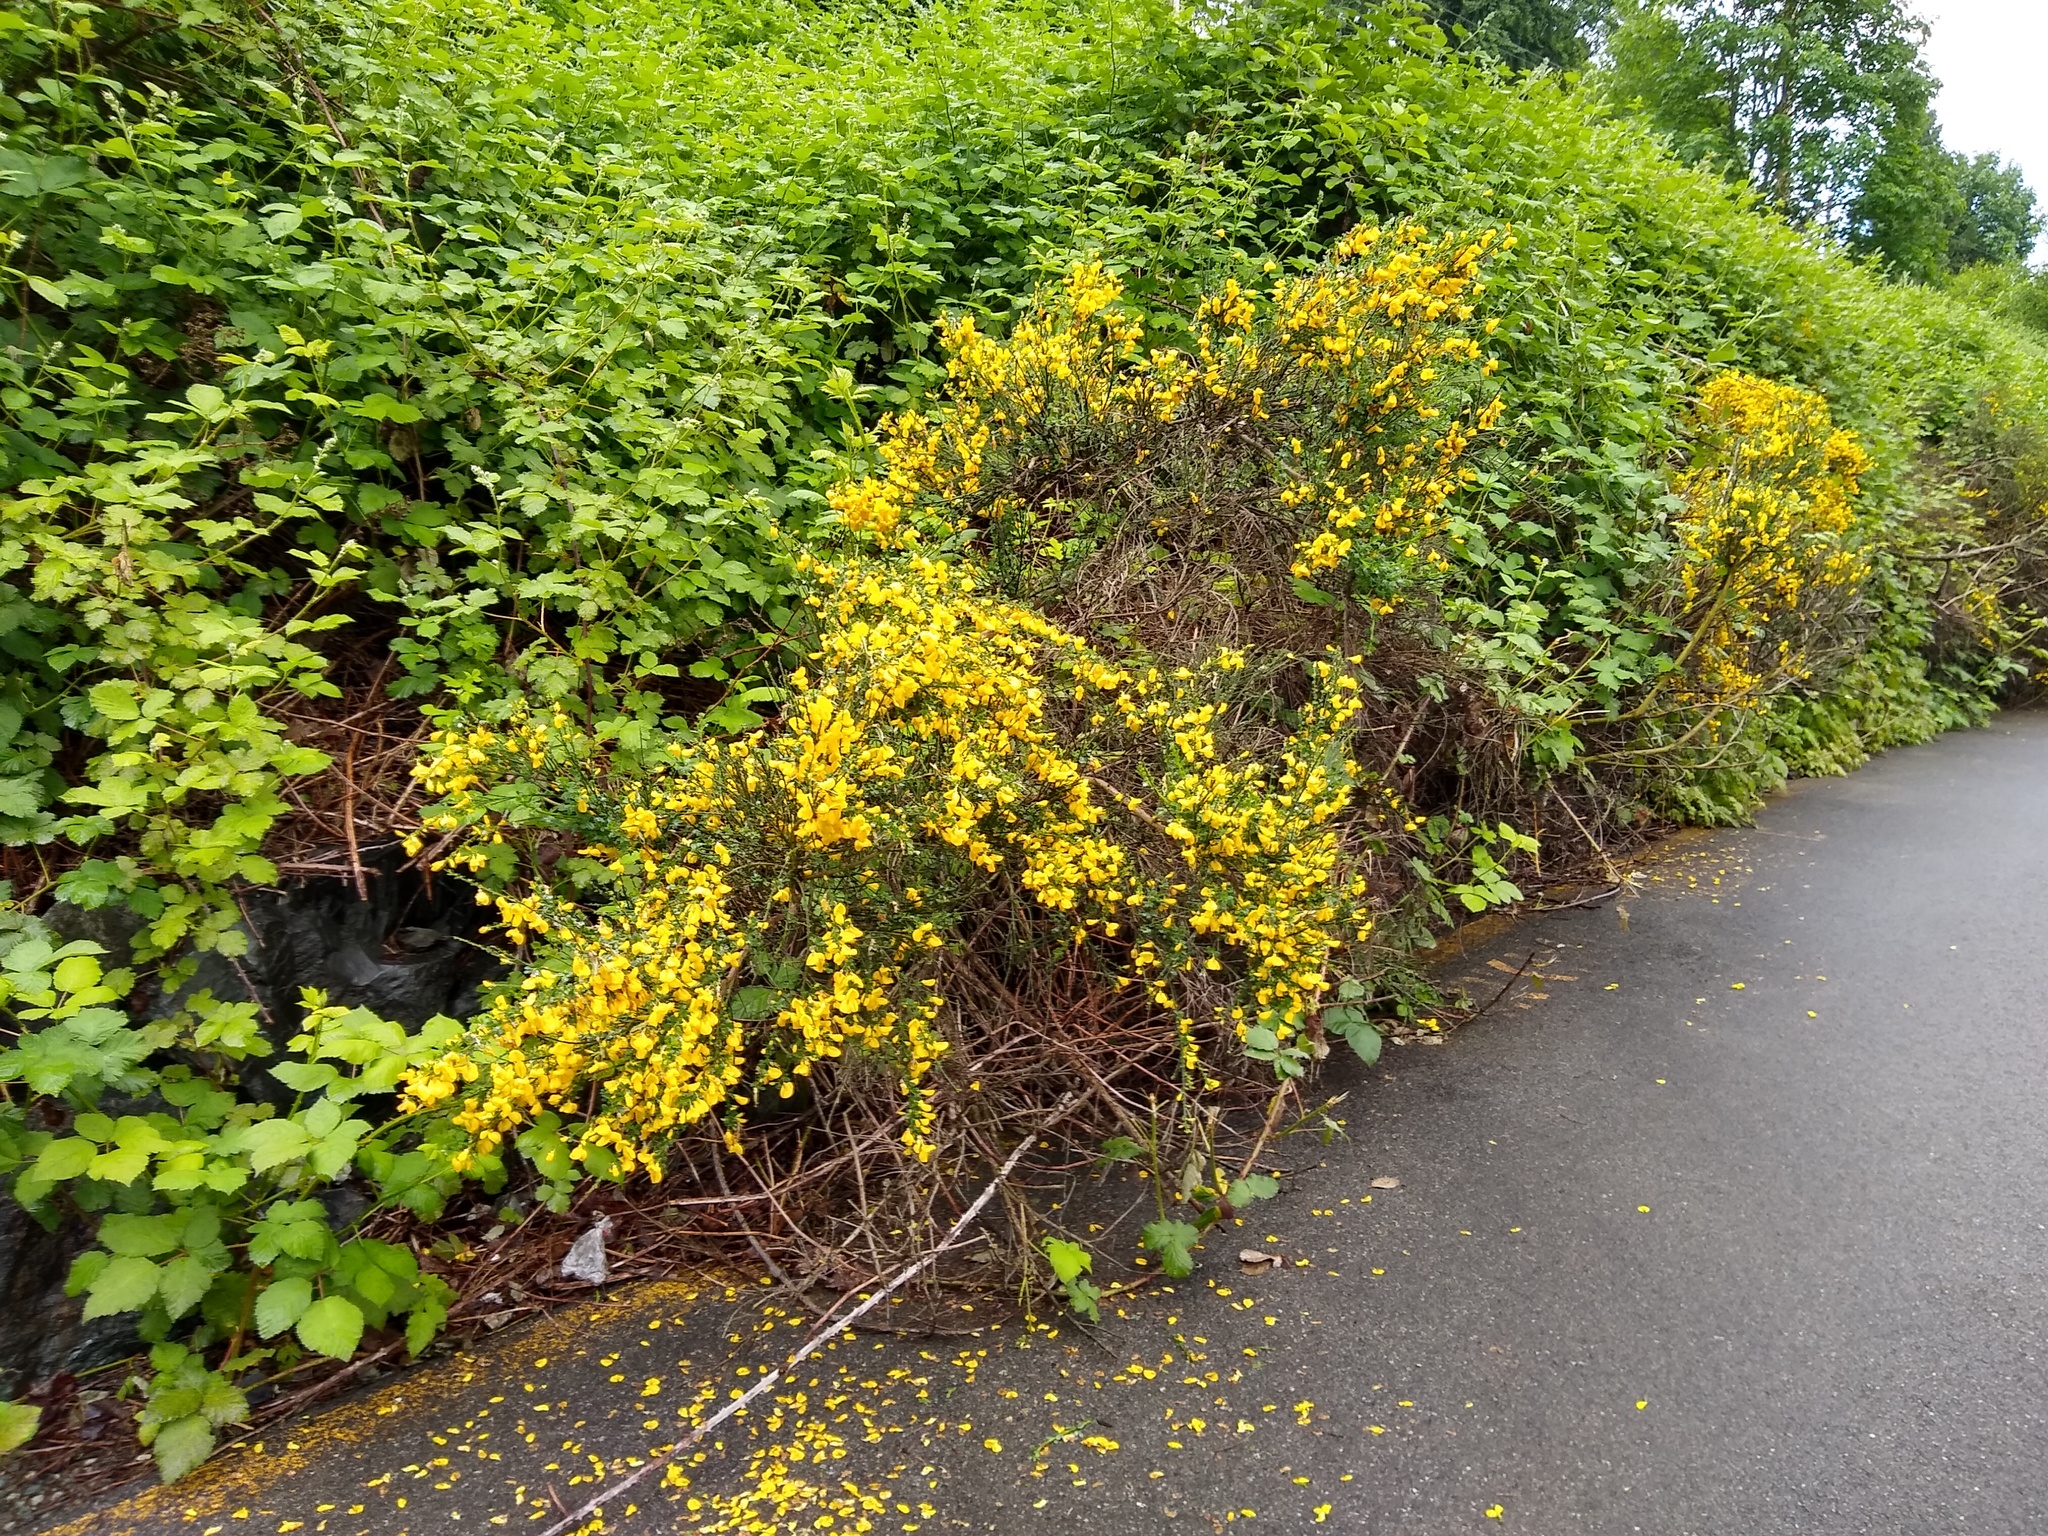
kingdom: Plantae
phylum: Tracheophyta
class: Magnoliopsida
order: Fabales
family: Fabaceae
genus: Cytisus
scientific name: Cytisus scoparius
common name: Scotch broom
